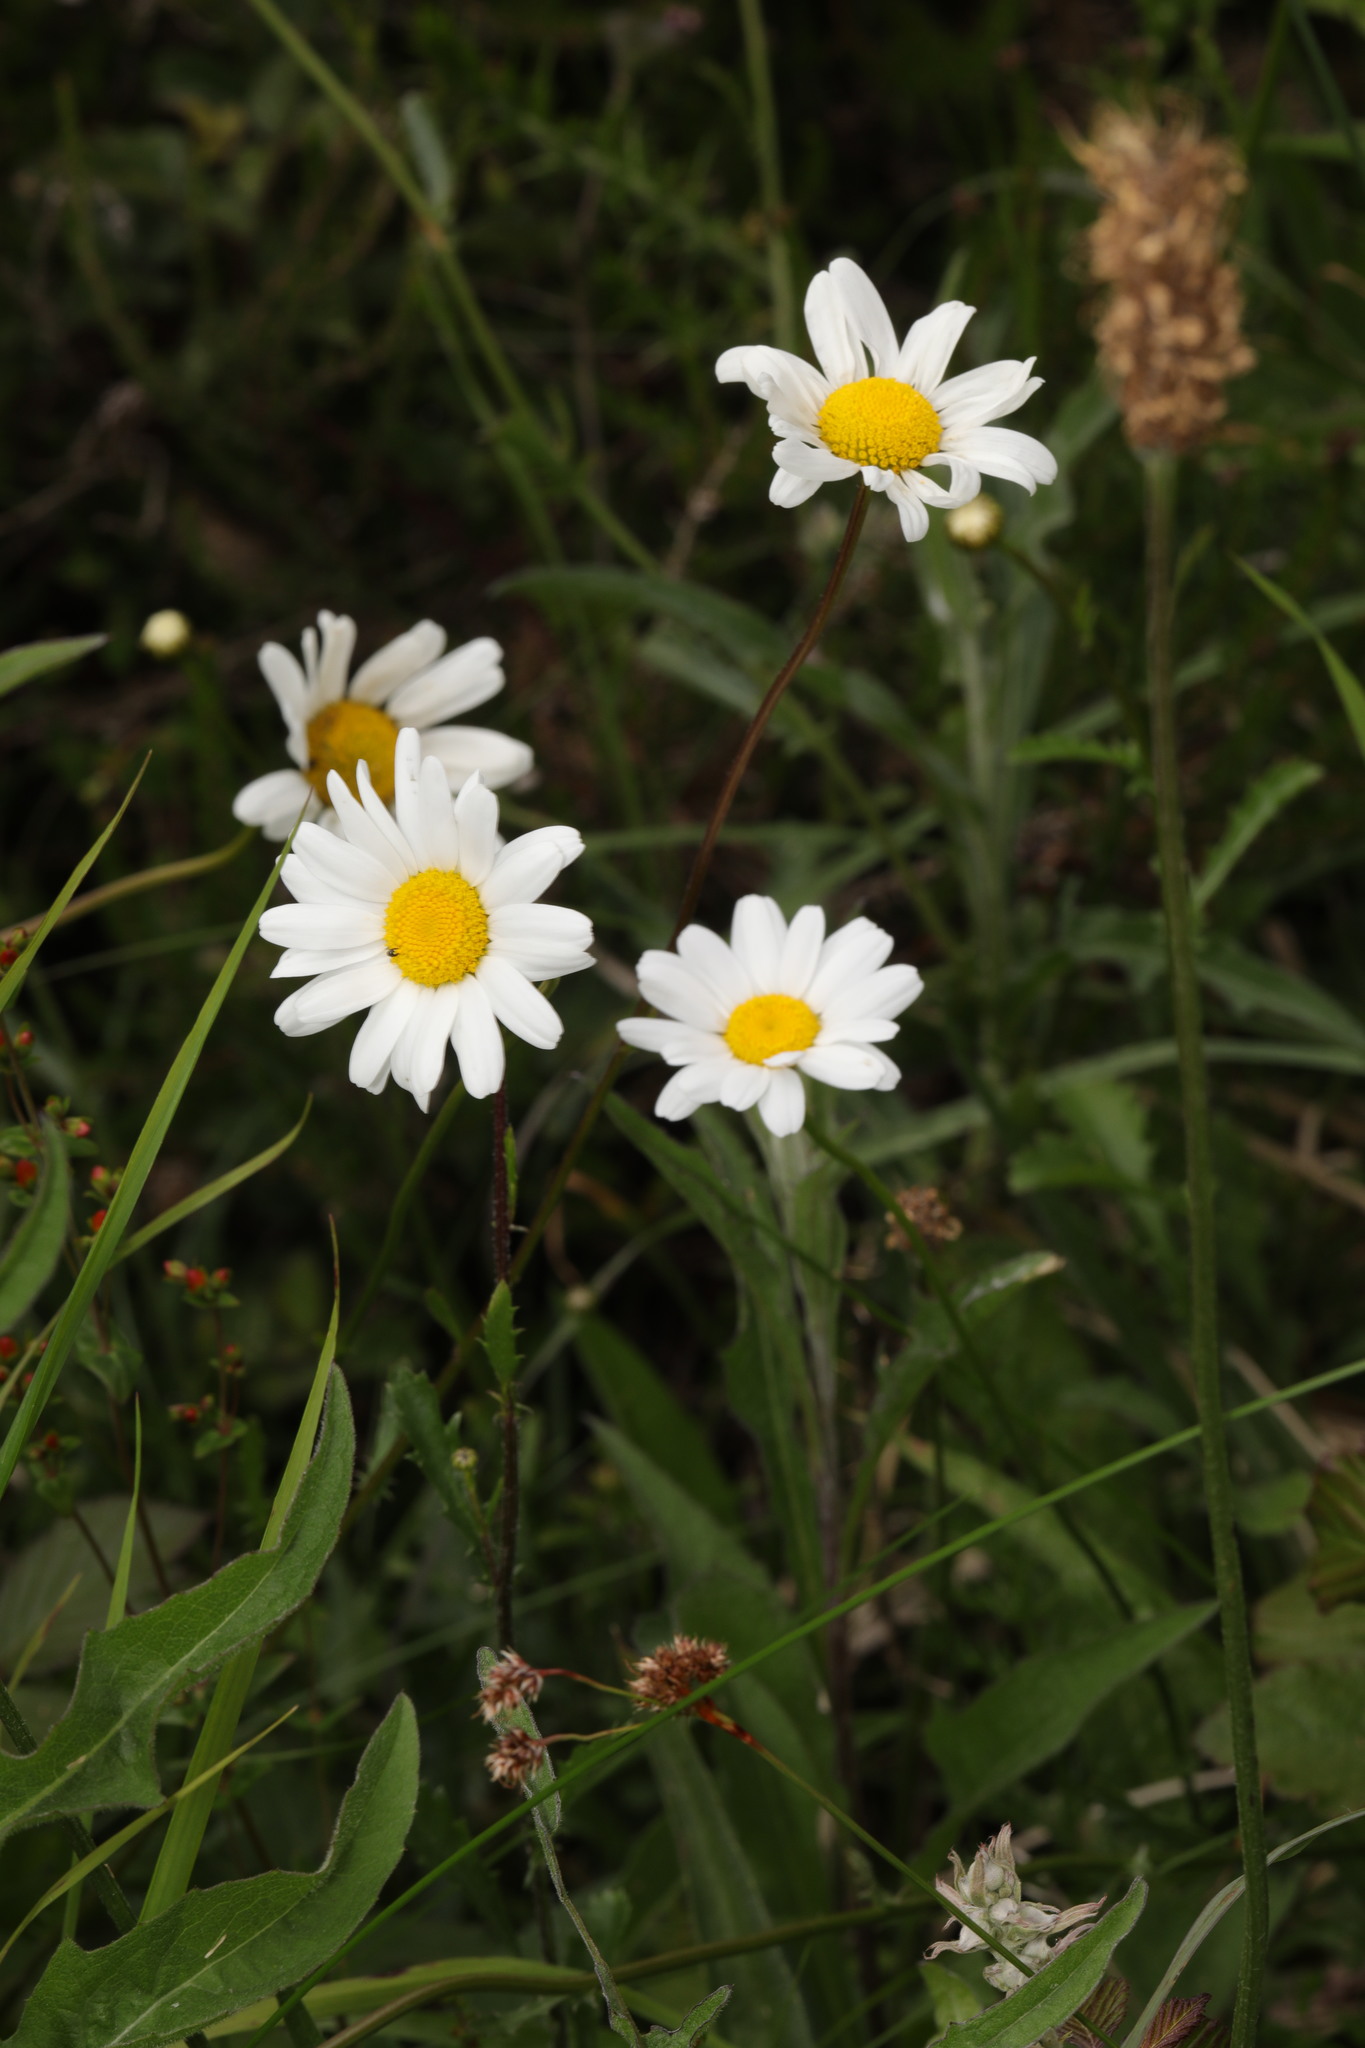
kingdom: Plantae
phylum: Tracheophyta
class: Magnoliopsida
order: Asterales
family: Asteraceae
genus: Leucanthemum
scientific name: Leucanthemum vulgare
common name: Oxeye daisy
